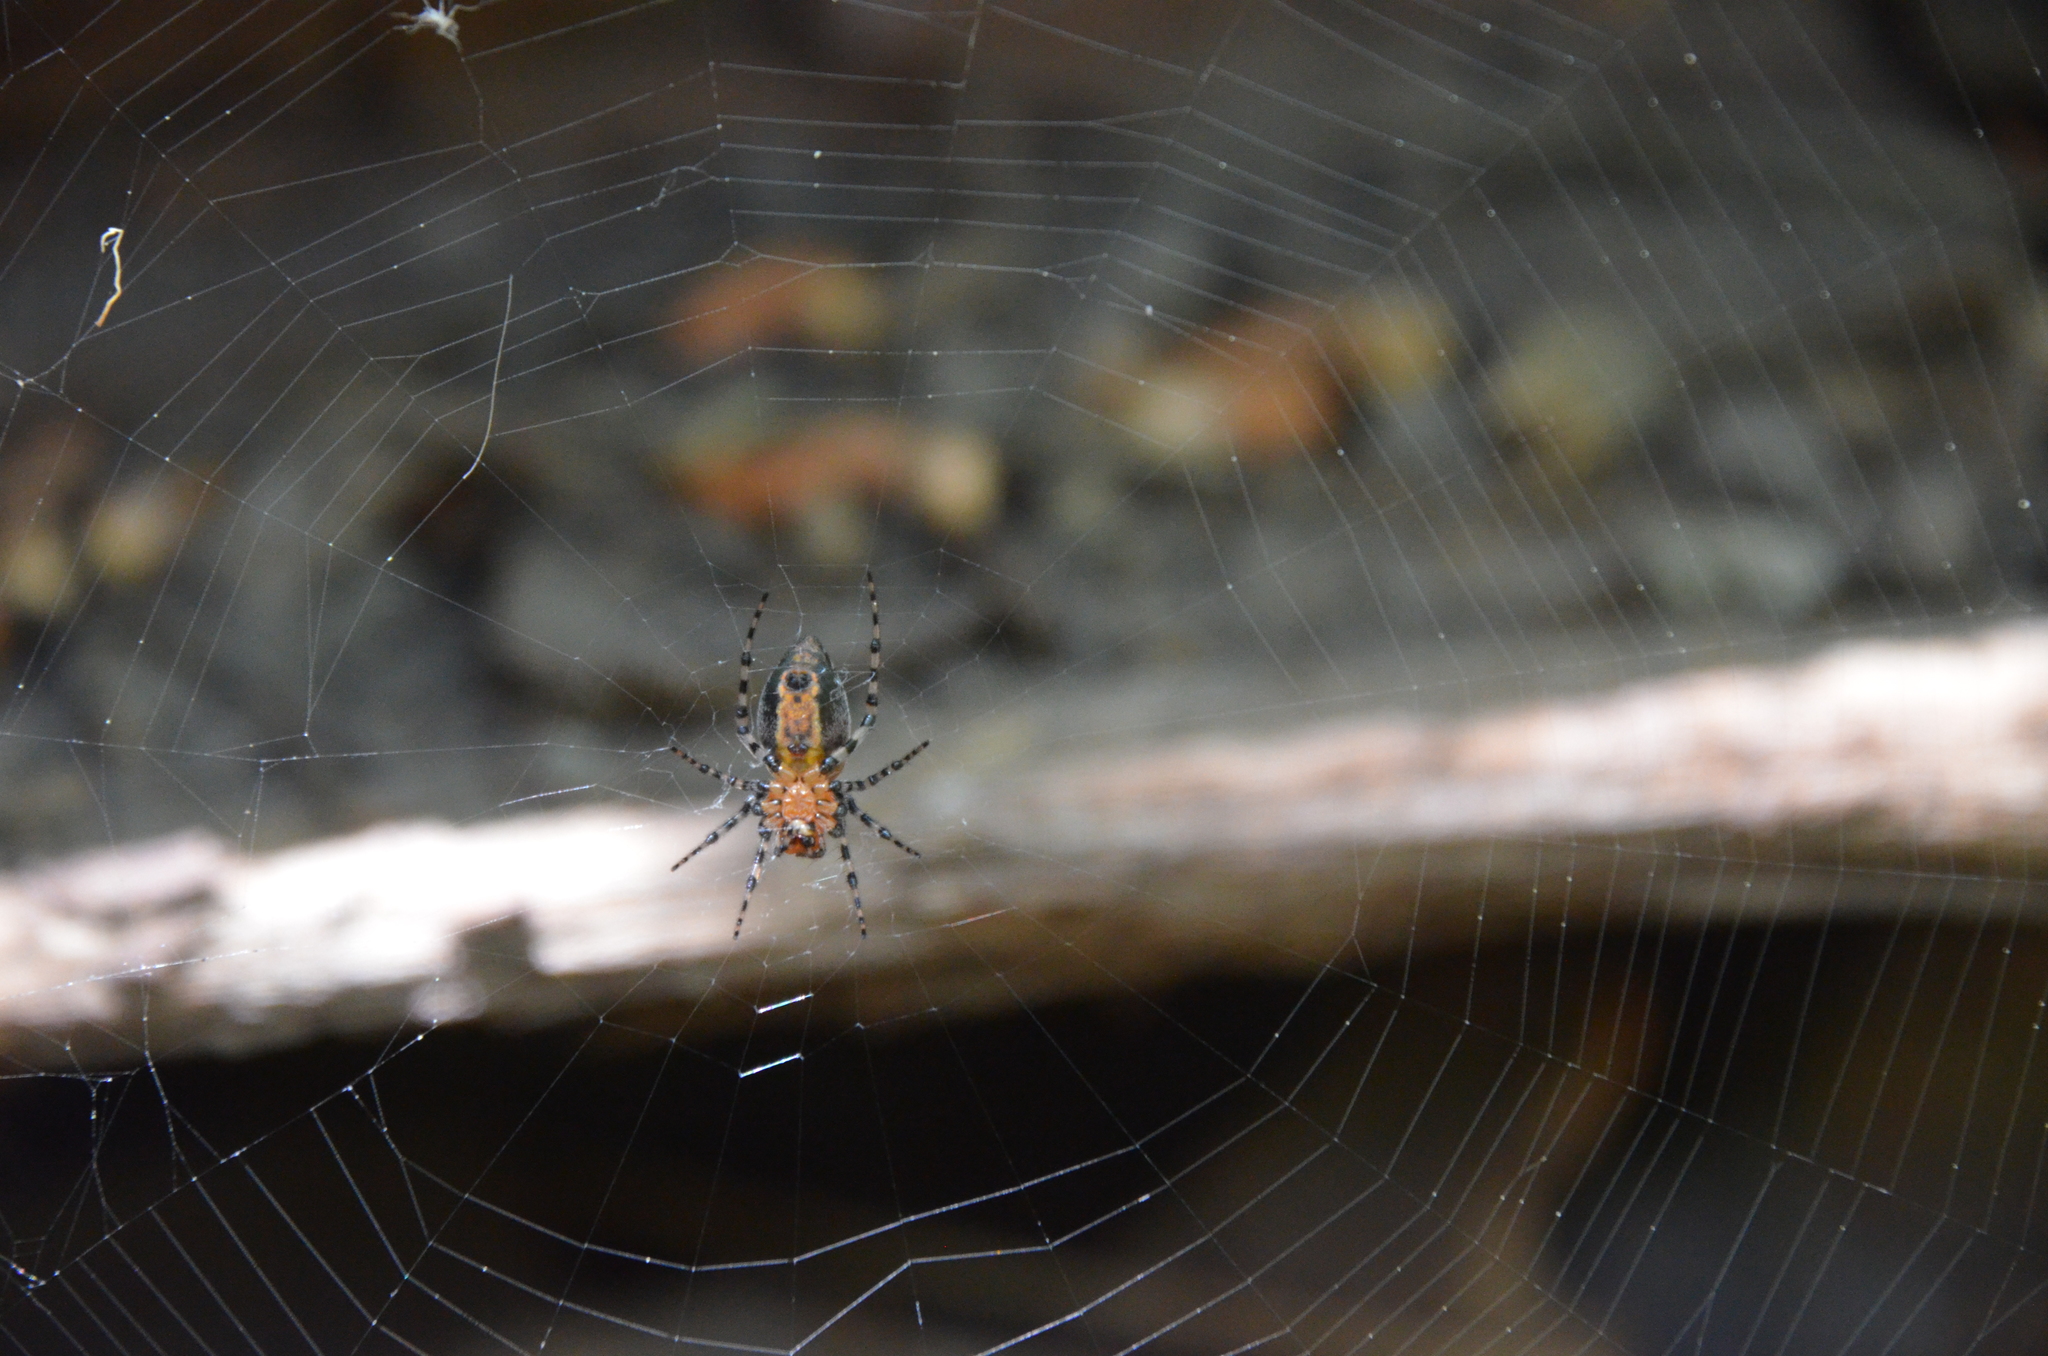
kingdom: Animalia
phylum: Arthropoda
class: Arachnida
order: Araneae
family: Araneidae
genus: Alpaida
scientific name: Alpaida gallardoi
